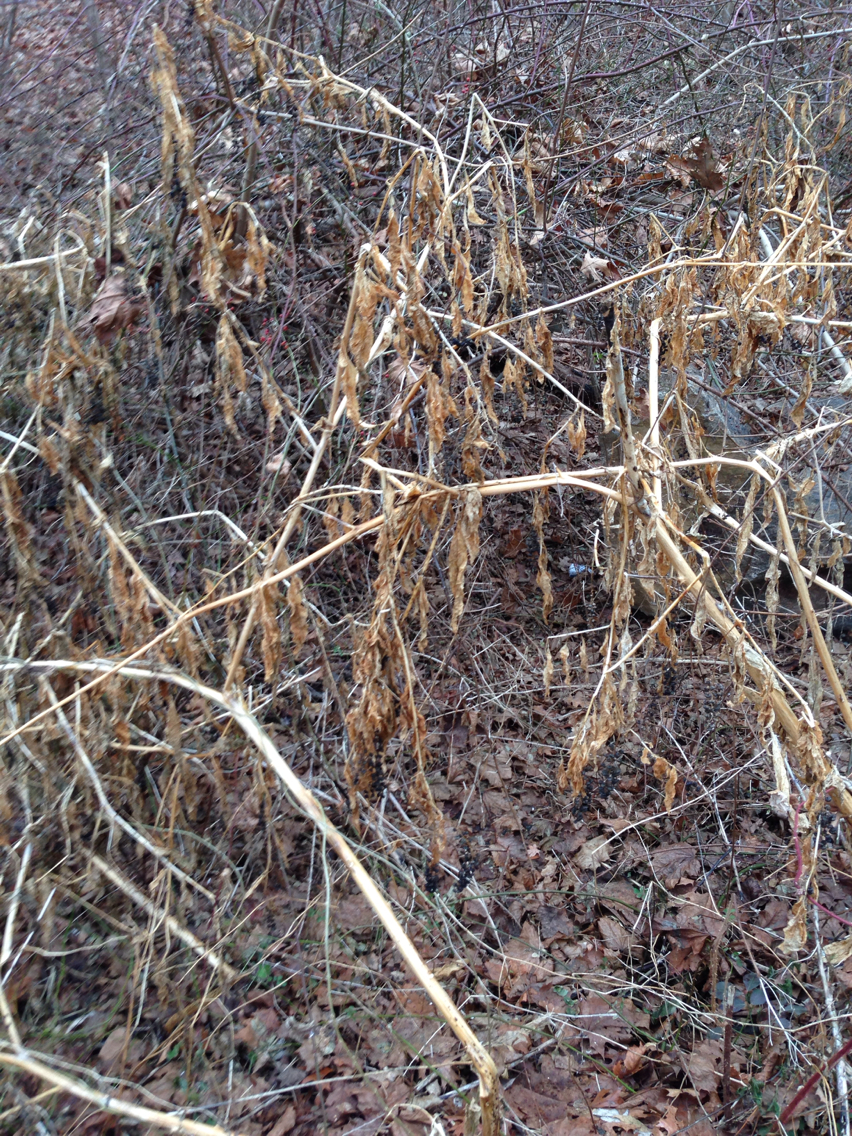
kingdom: Plantae
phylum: Tracheophyta
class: Magnoliopsida
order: Caryophyllales
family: Phytolaccaceae
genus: Phytolacca
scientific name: Phytolacca americana
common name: American pokeweed
